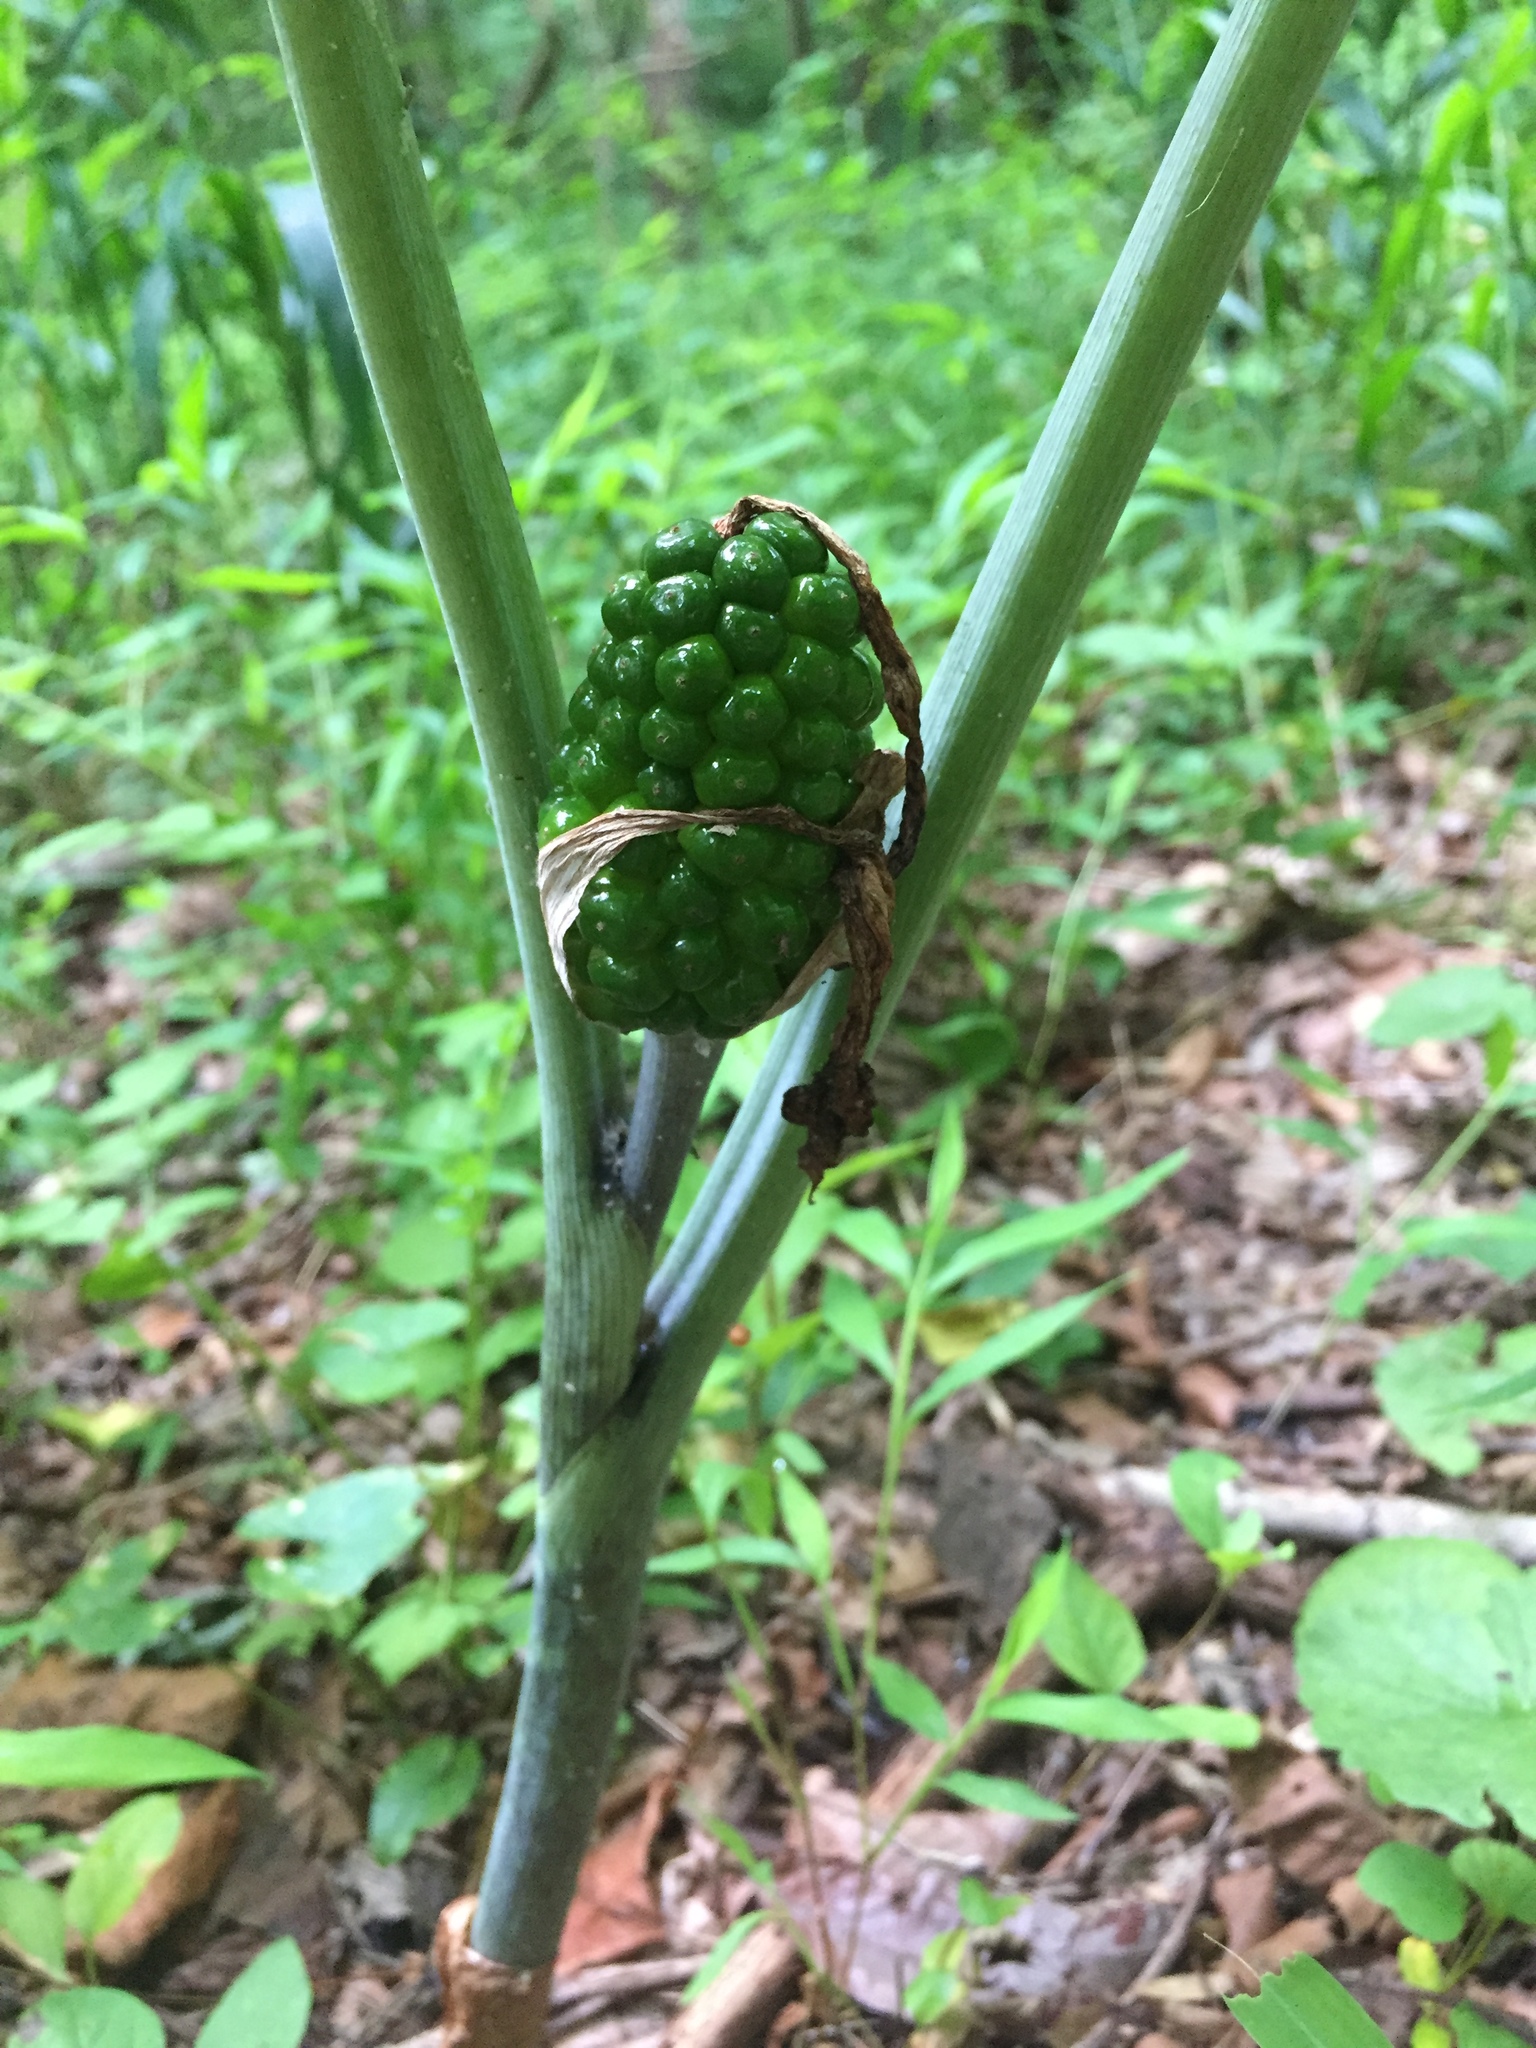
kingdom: Plantae
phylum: Tracheophyta
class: Liliopsida
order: Alismatales
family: Araceae
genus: Arisaema
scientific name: Arisaema triphyllum
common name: Jack-in-the-pulpit
